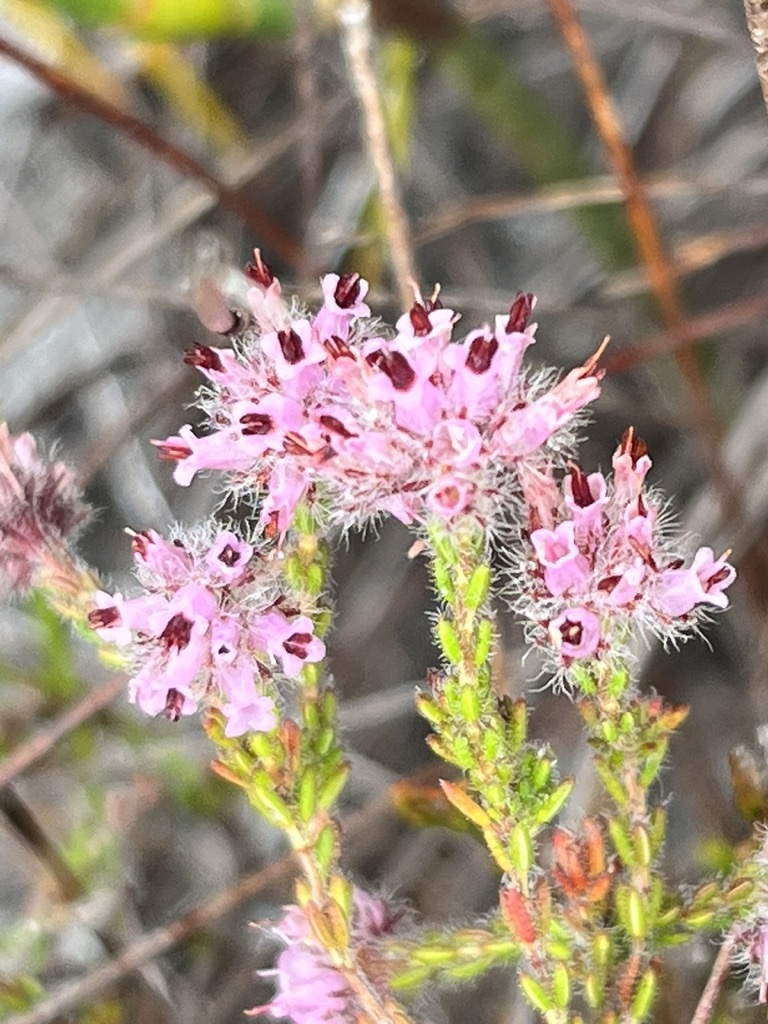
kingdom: Plantae
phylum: Tracheophyta
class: Magnoliopsida
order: Ericales
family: Ericaceae
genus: Erica
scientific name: Erica russakiana
